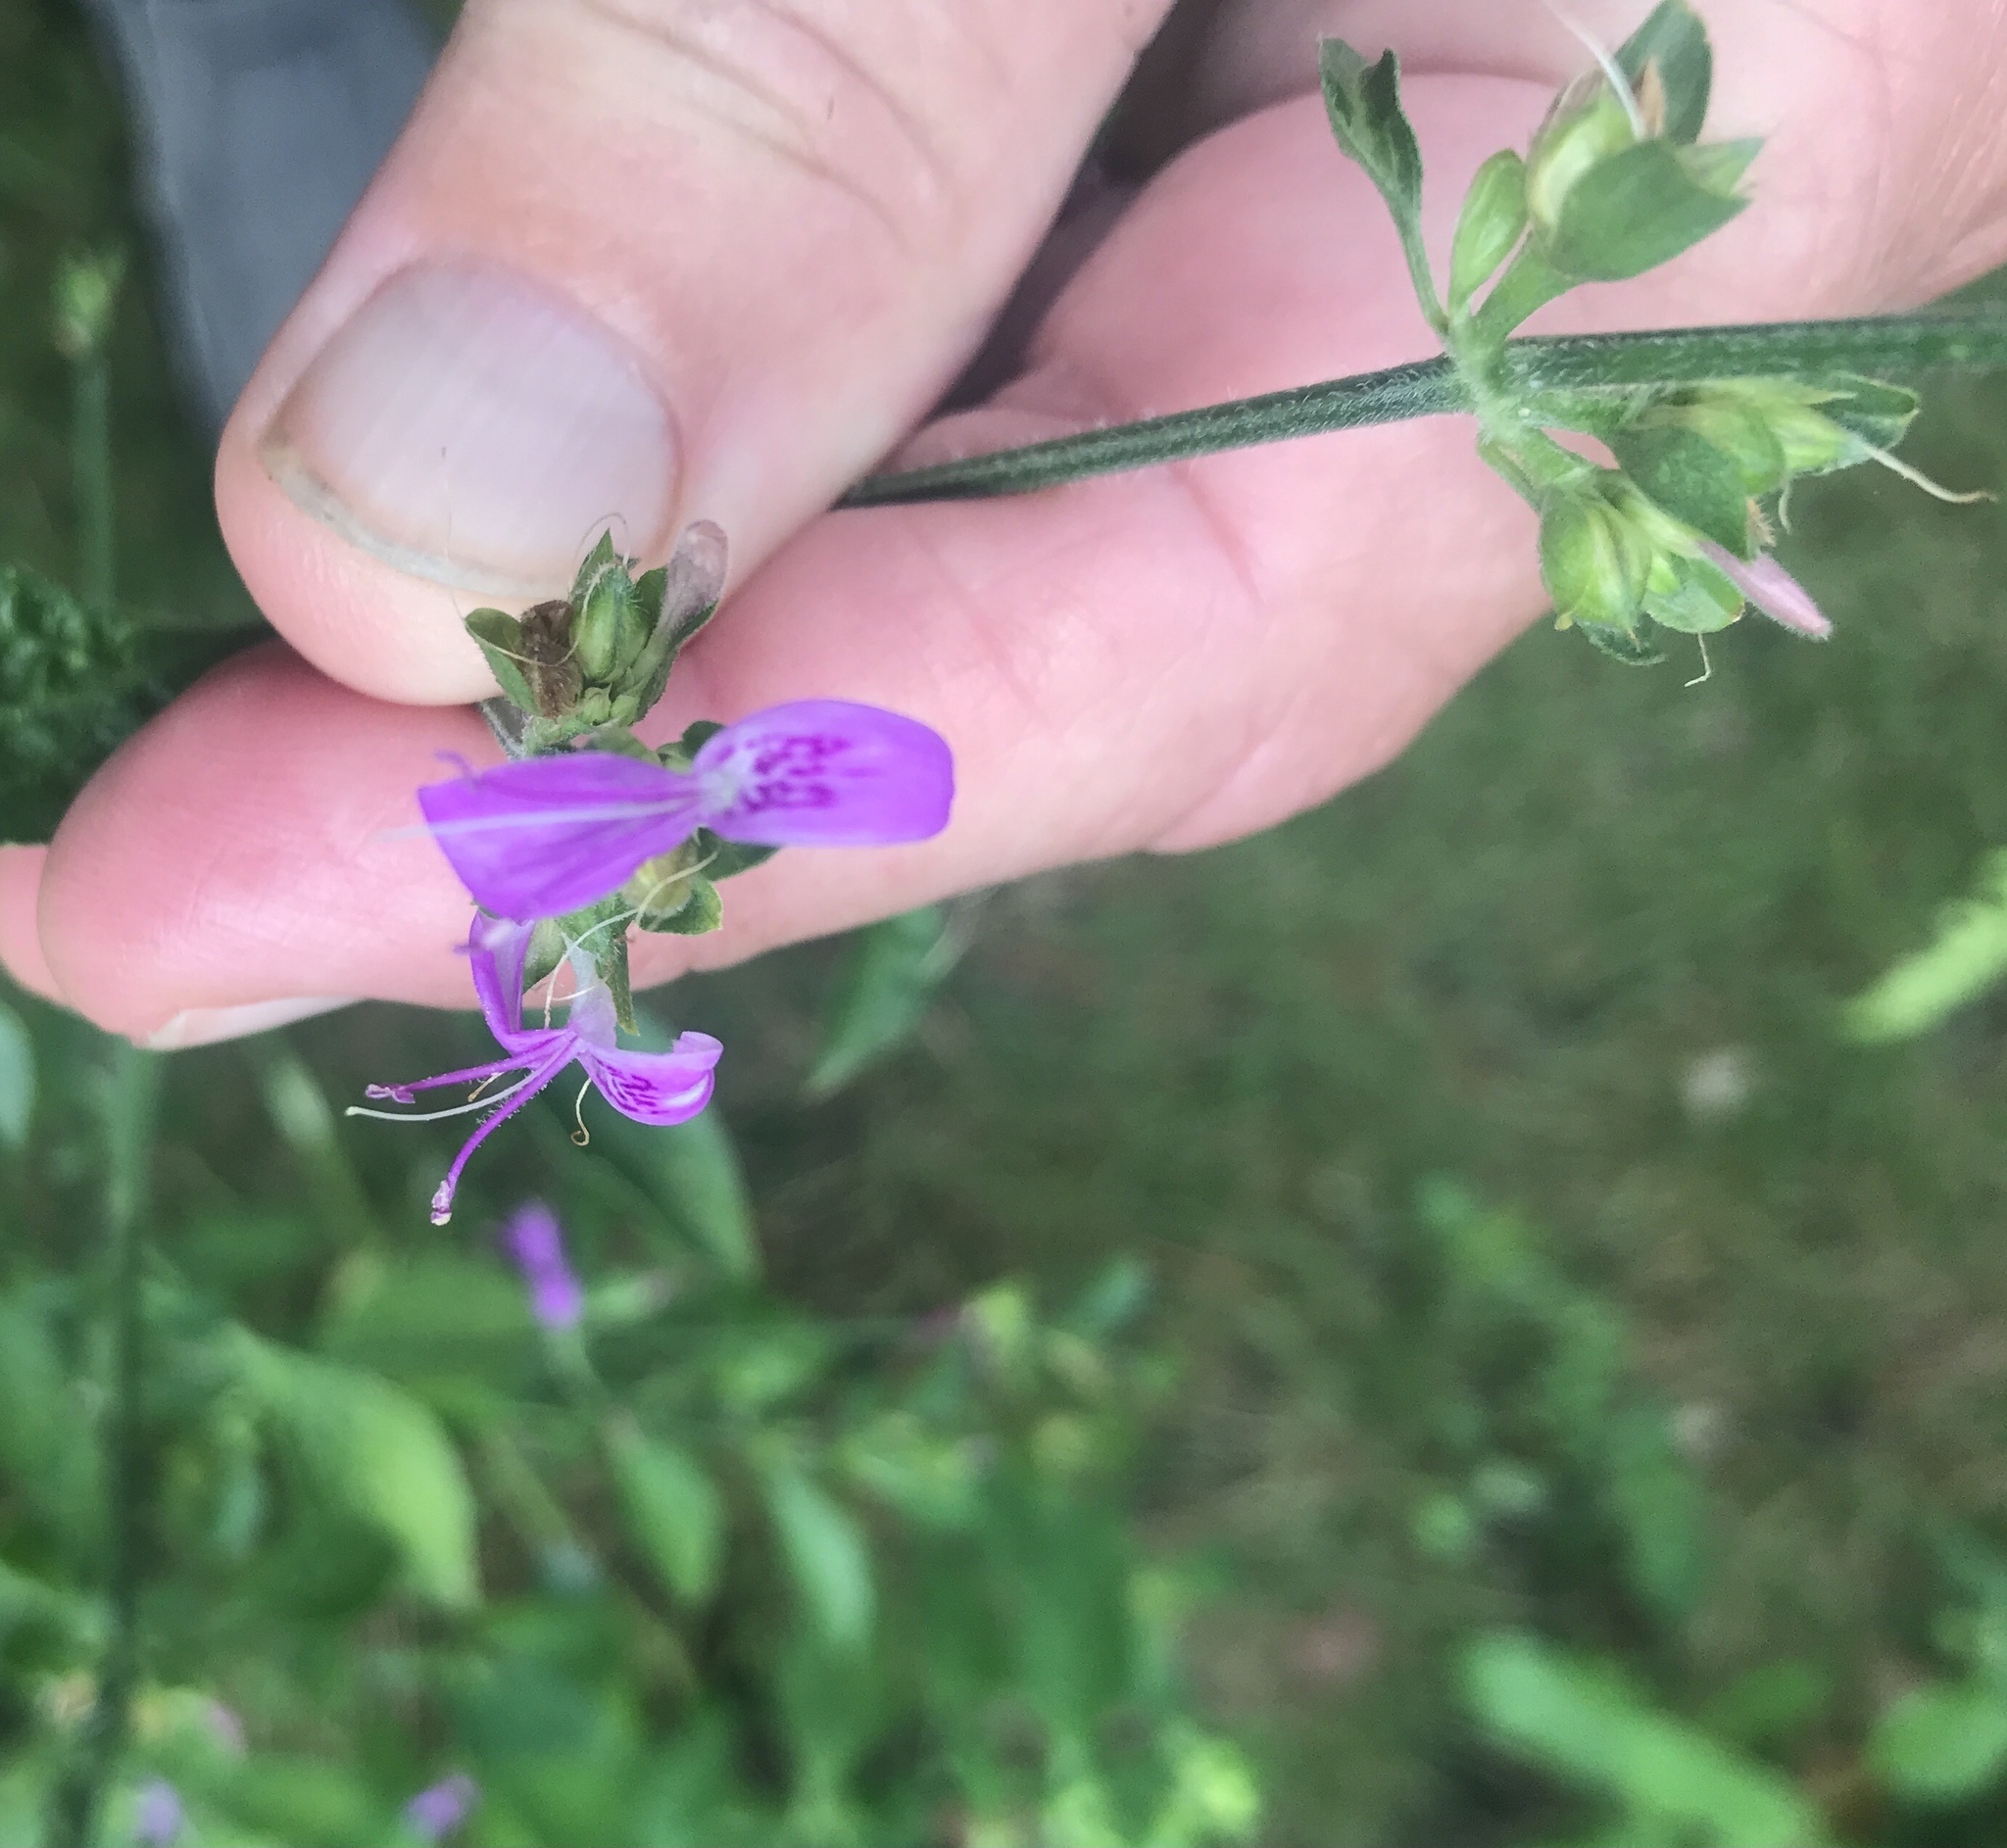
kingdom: Plantae
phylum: Tracheophyta
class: Magnoliopsida
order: Lamiales
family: Acanthaceae
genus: Dicliptera
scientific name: Dicliptera brachiata
